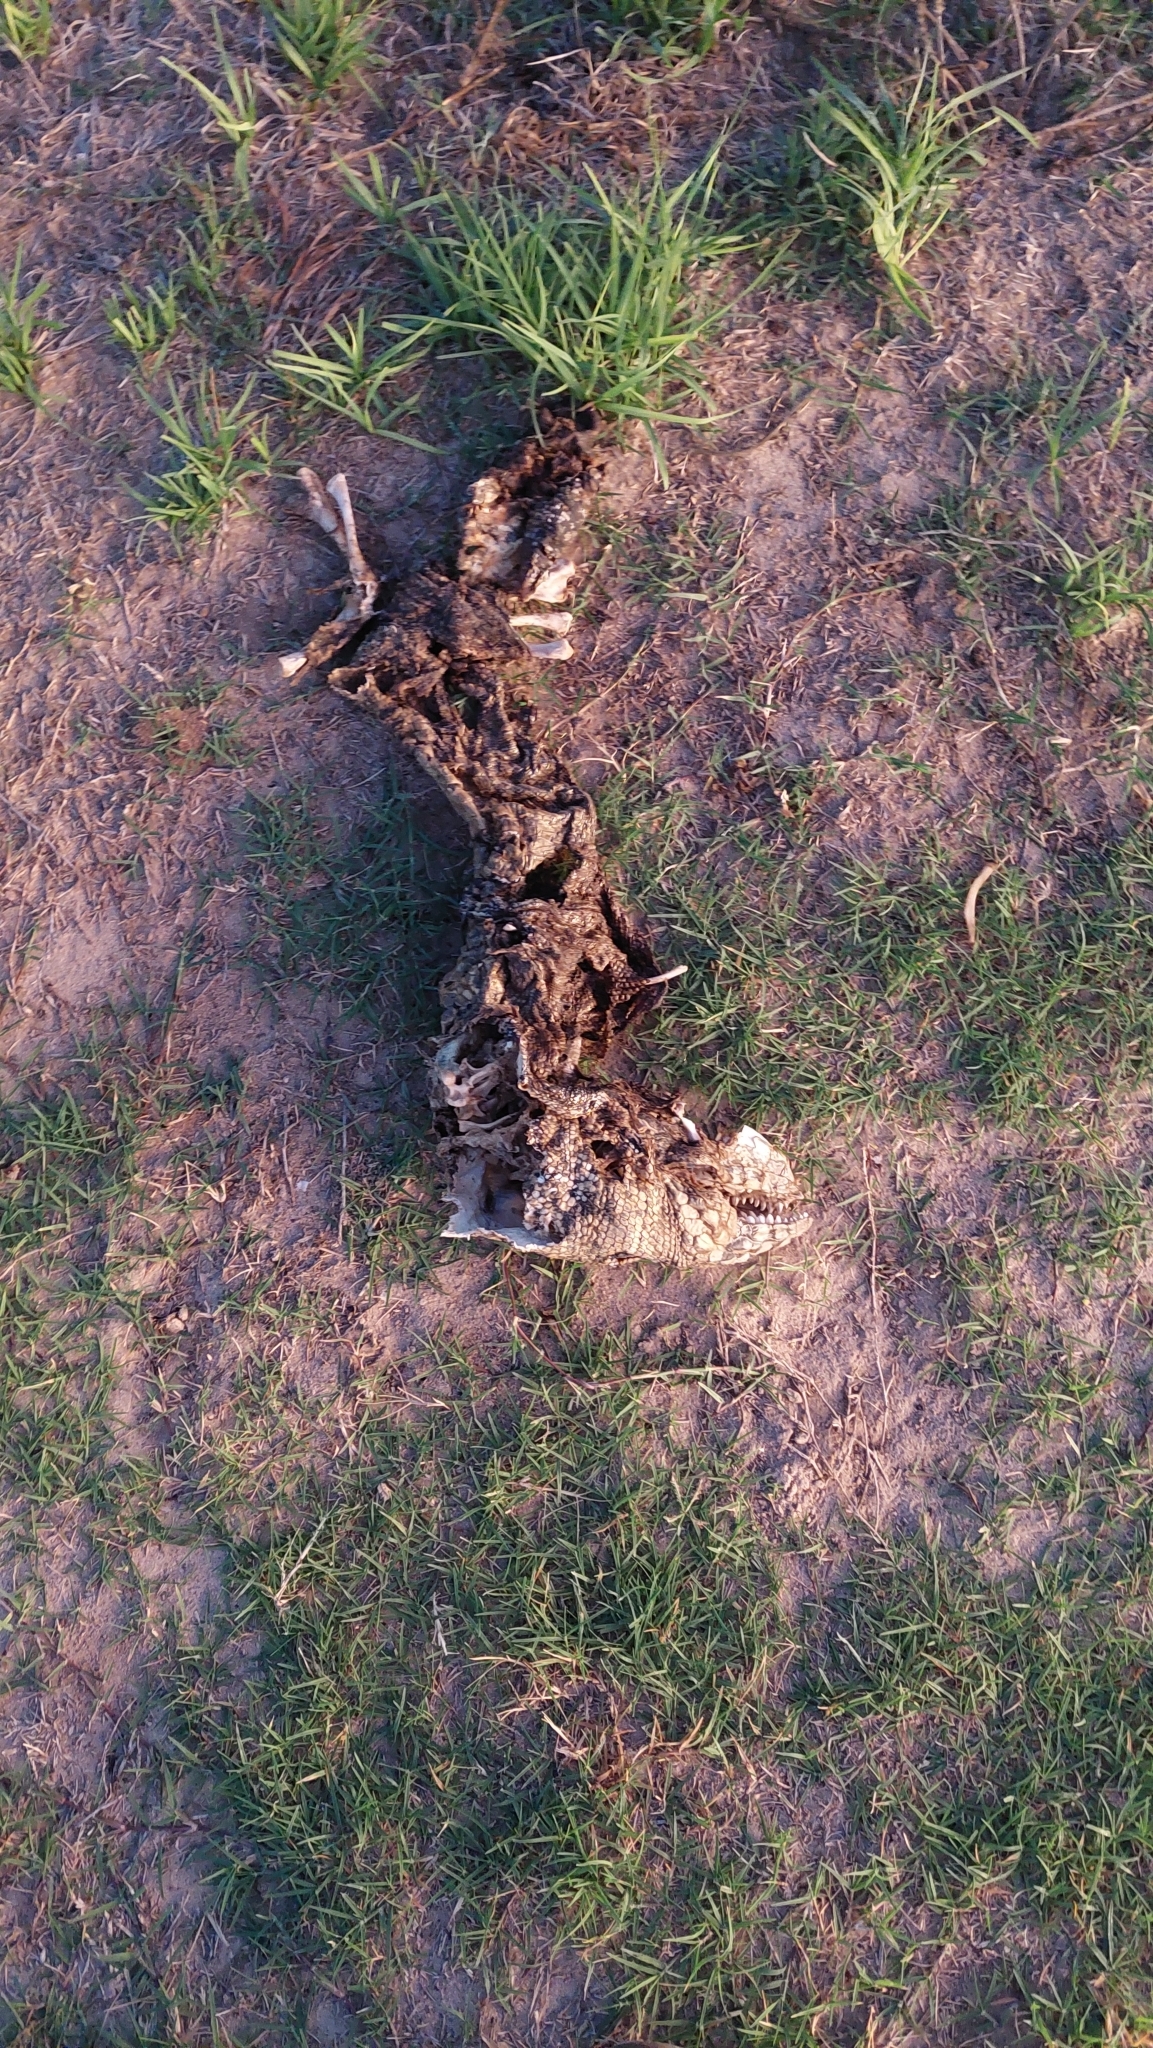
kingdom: Animalia
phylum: Chordata
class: Squamata
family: Teiidae
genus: Salvator
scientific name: Salvator merianae
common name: Argentine black and white tegu
